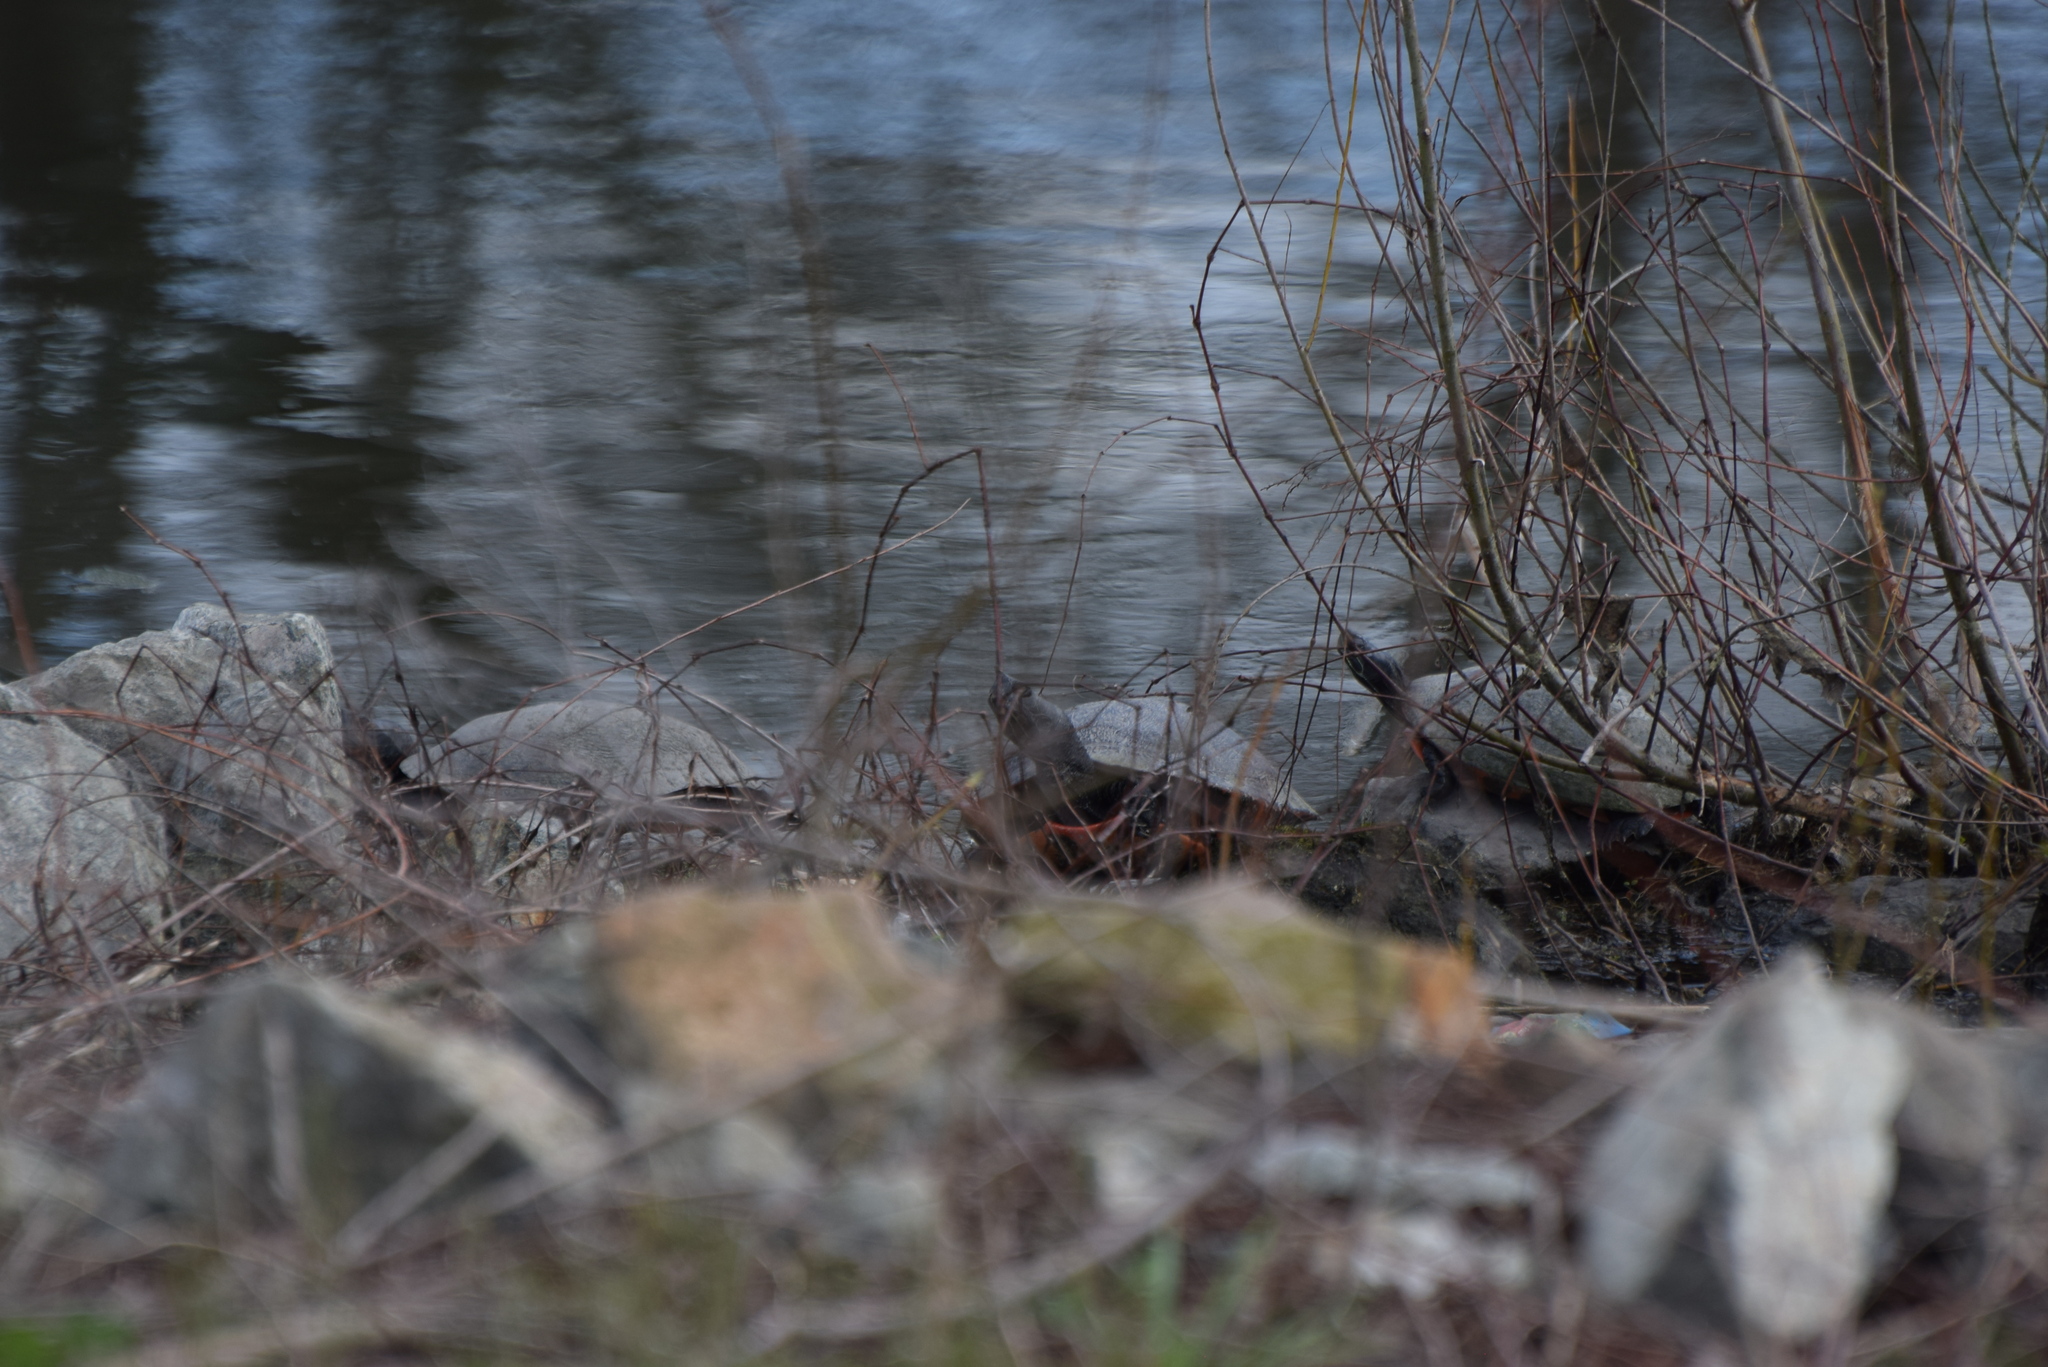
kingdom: Animalia
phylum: Chordata
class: Testudines
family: Emydidae
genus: Pseudemys
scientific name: Pseudemys rubriventris
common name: American red-bellied turtle
